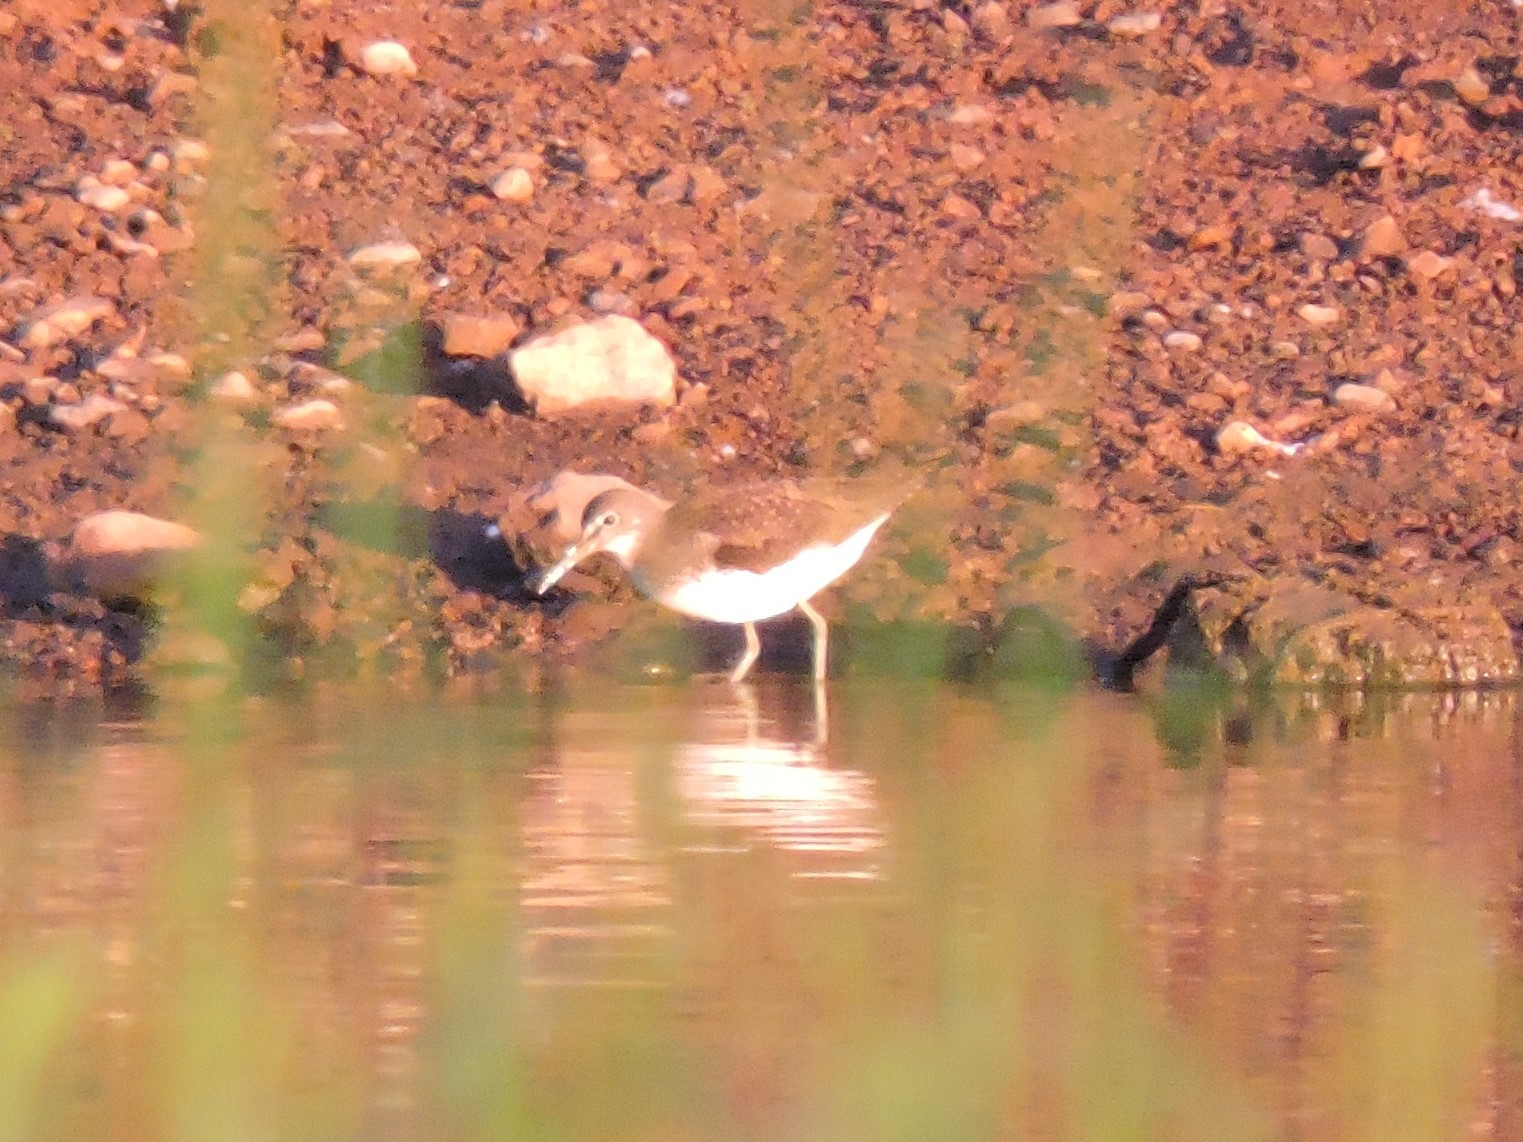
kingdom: Animalia
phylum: Chordata
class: Aves
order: Charadriiformes
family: Scolopacidae
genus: Tringa
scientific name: Tringa ochropus
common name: Green sandpiper
